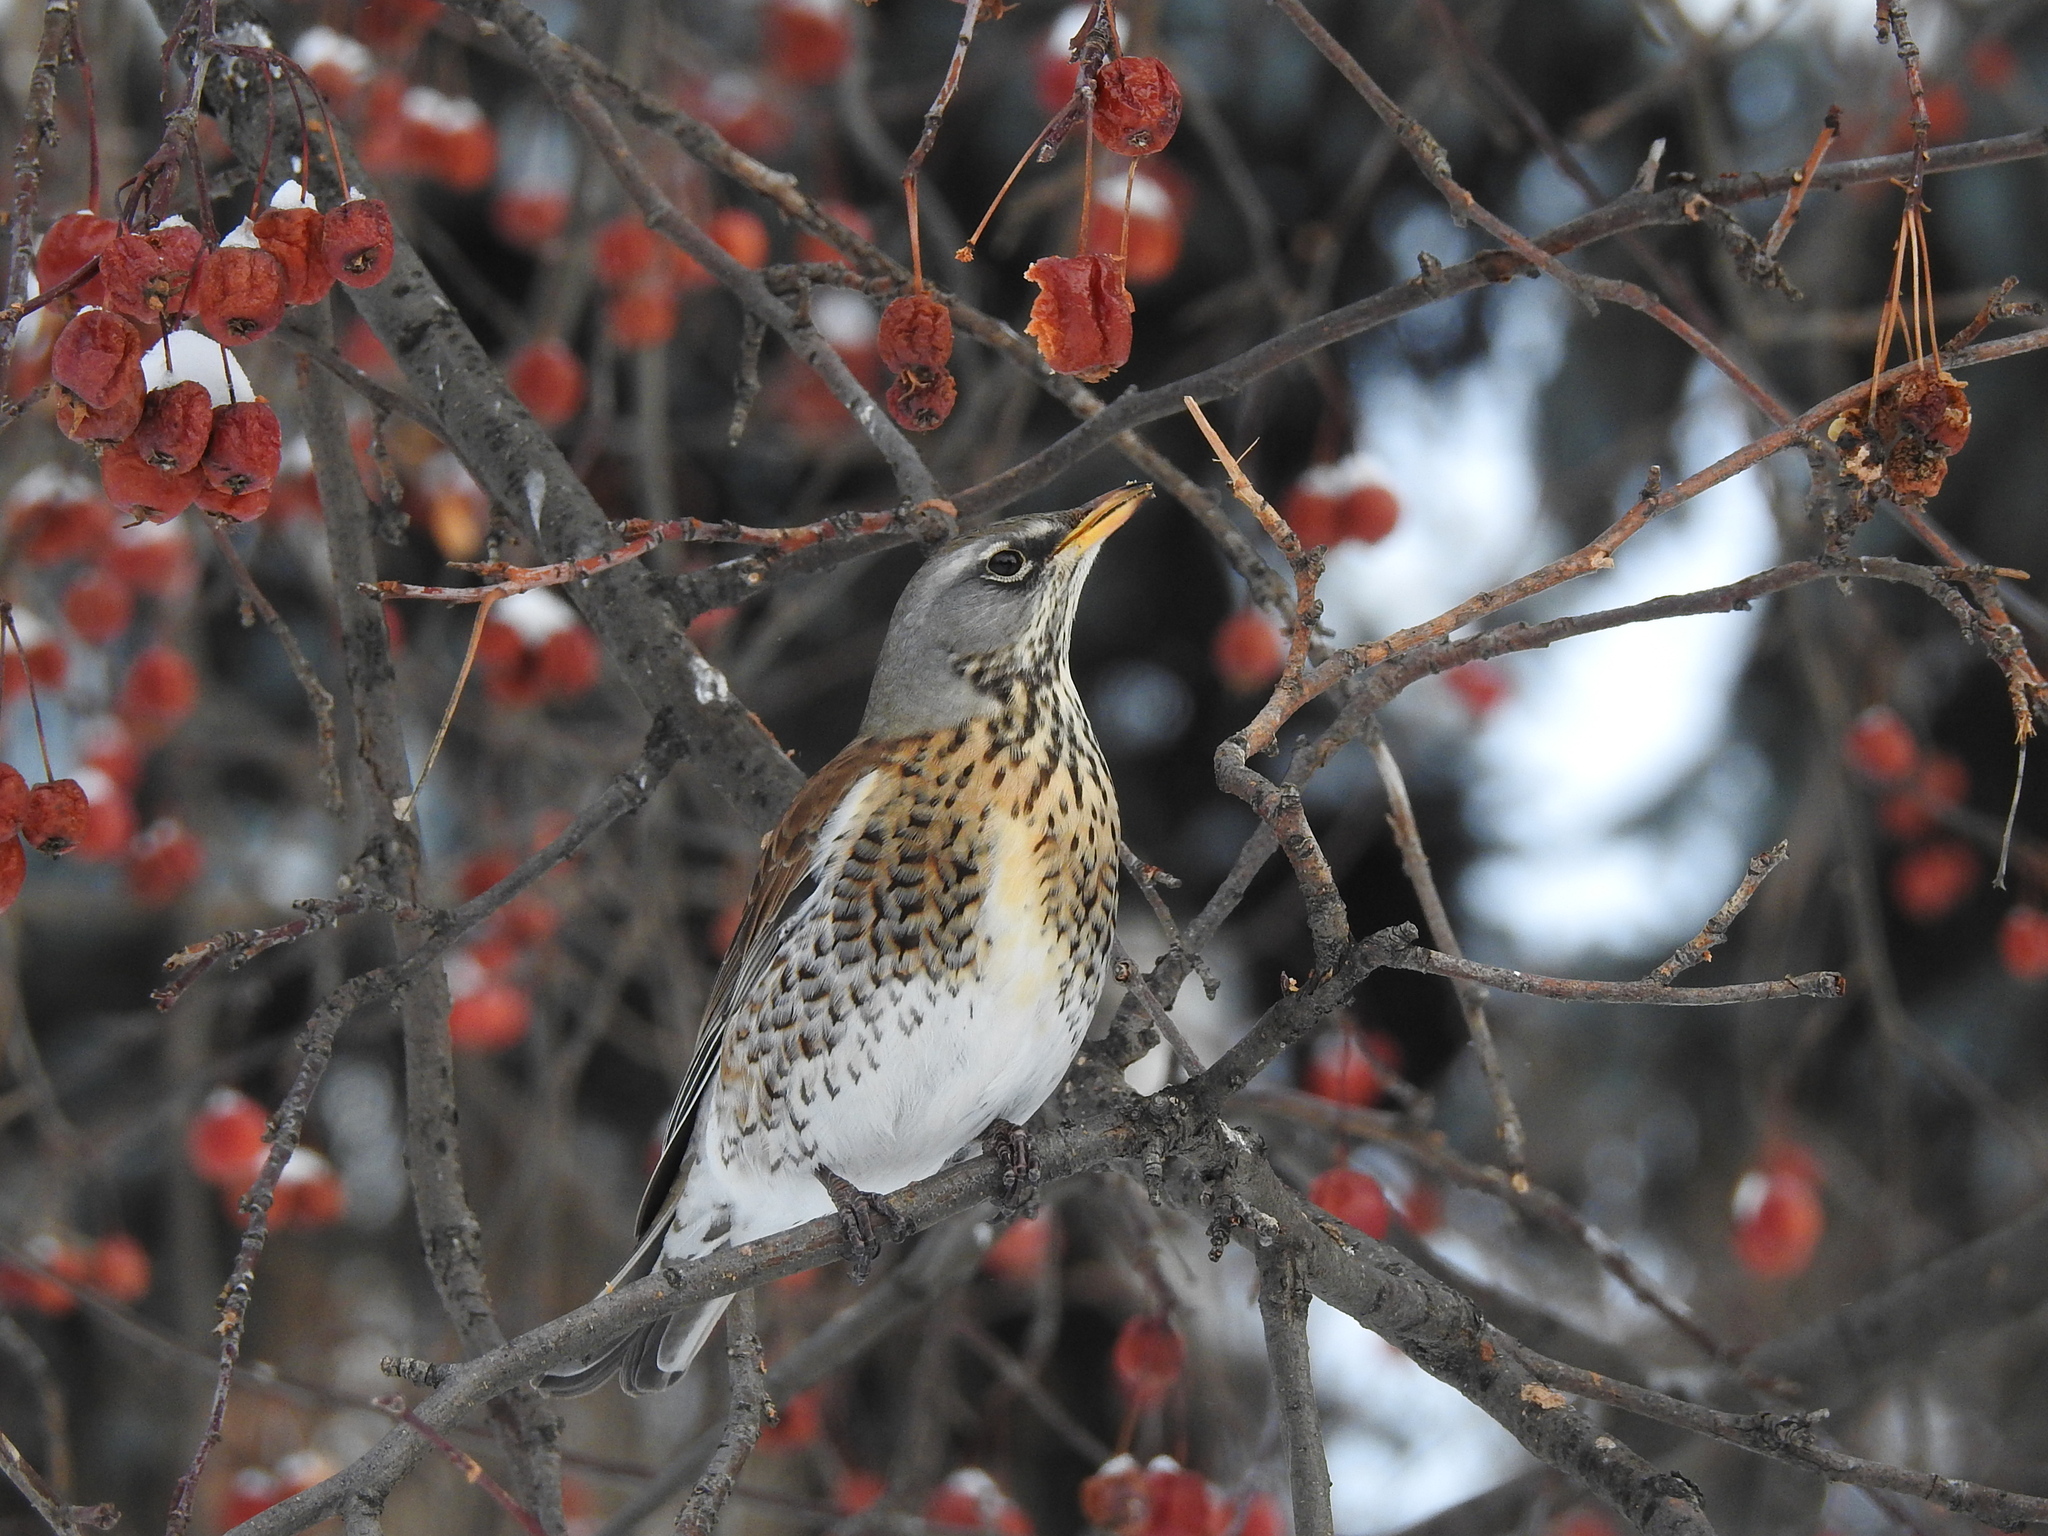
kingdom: Animalia
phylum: Chordata
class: Aves
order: Passeriformes
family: Turdidae
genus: Turdus
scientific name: Turdus pilaris
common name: Fieldfare
